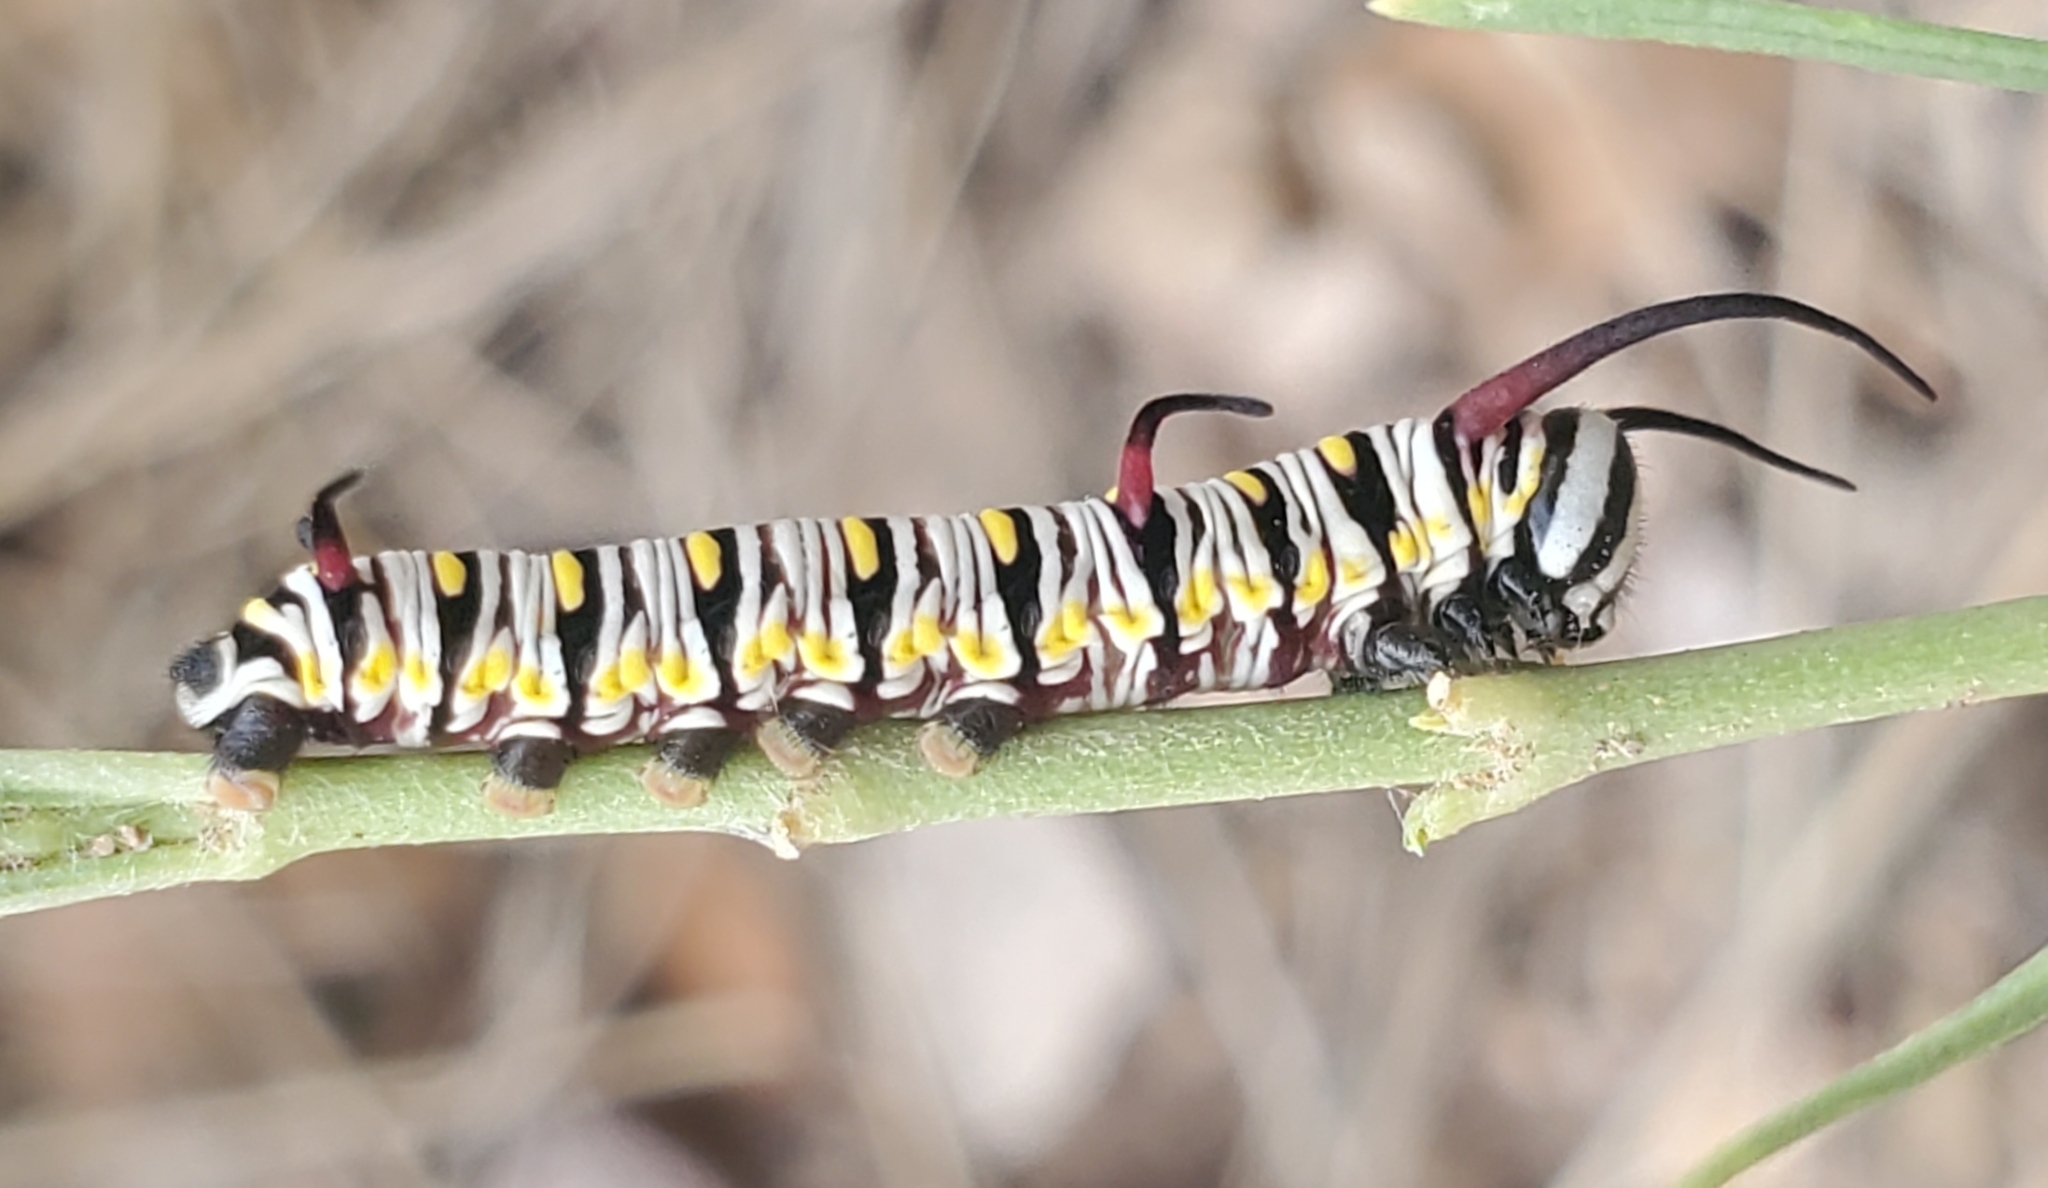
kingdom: Animalia
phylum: Arthropoda
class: Insecta
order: Lepidoptera
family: Nymphalidae
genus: Danaus
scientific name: Danaus gilippus
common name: Queen
